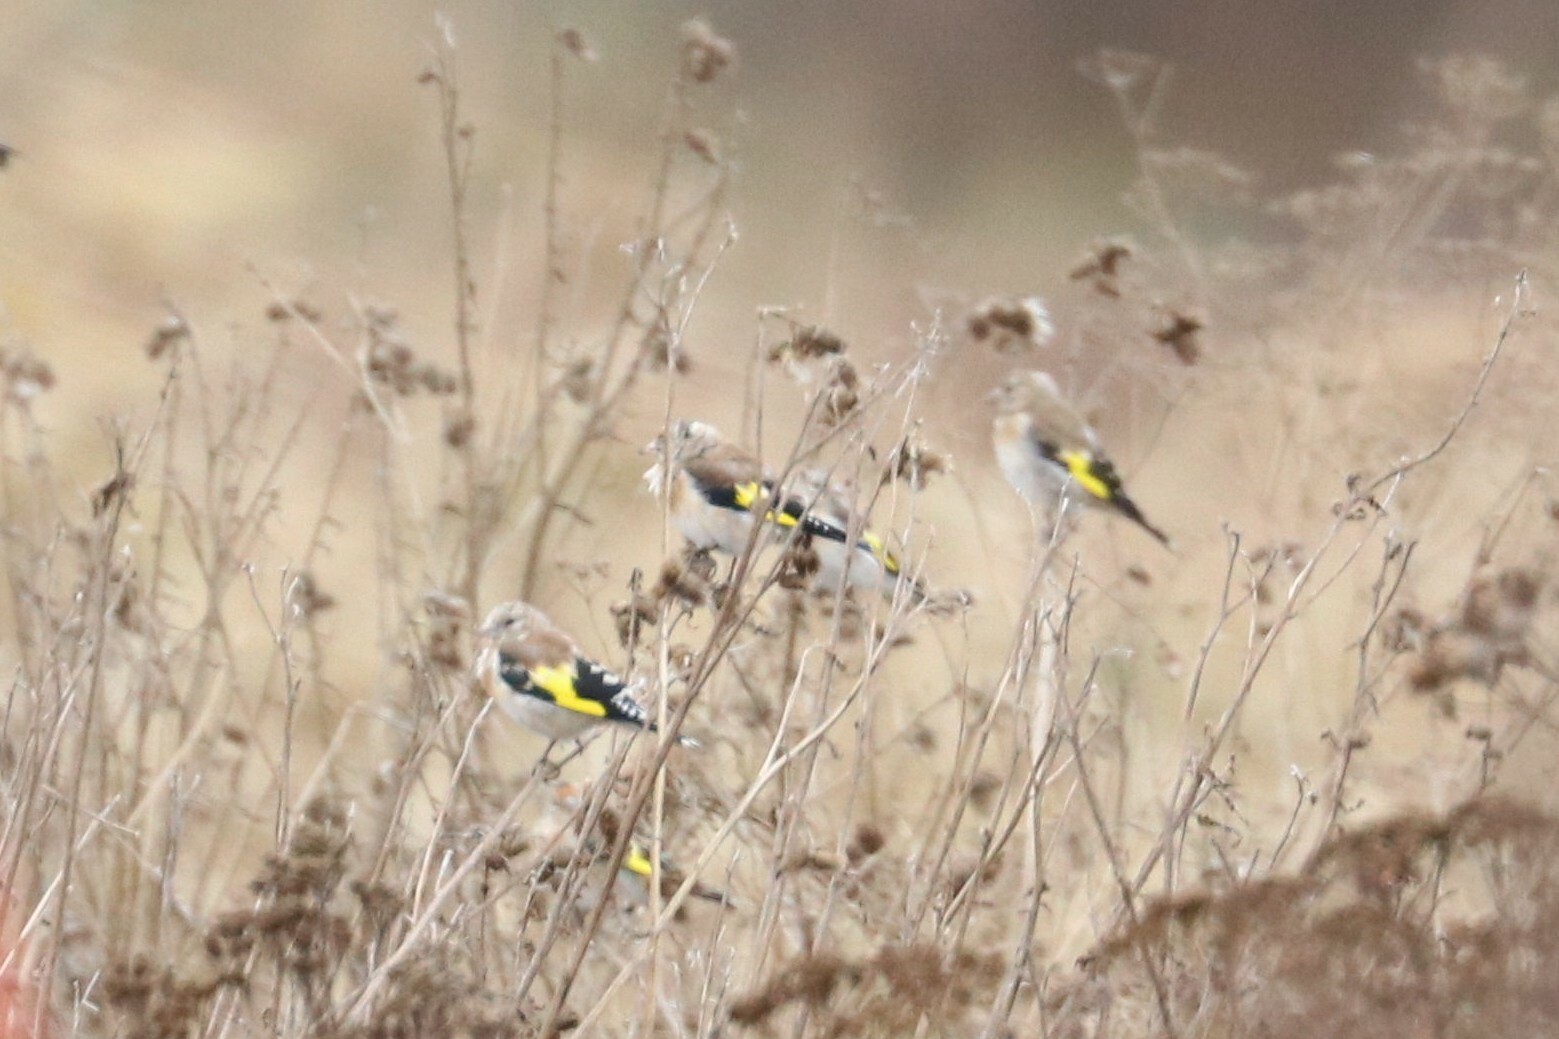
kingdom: Animalia
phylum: Chordata
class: Aves
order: Passeriformes
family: Fringillidae
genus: Carduelis
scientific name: Carduelis carduelis
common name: European goldfinch
